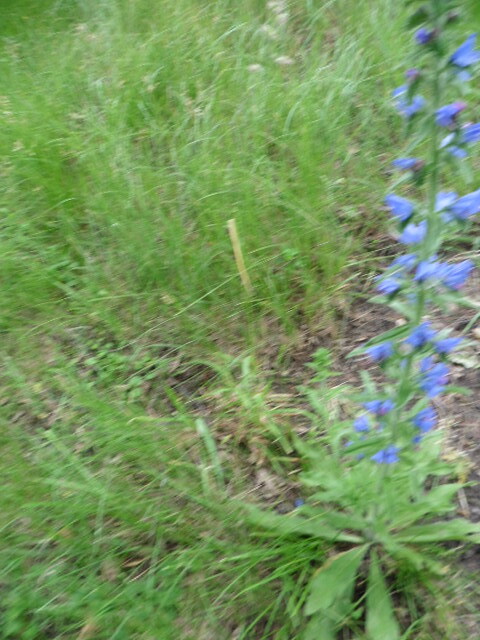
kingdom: Plantae
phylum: Tracheophyta
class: Magnoliopsida
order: Boraginales
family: Boraginaceae
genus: Echium
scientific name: Echium vulgare
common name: Common viper's bugloss
